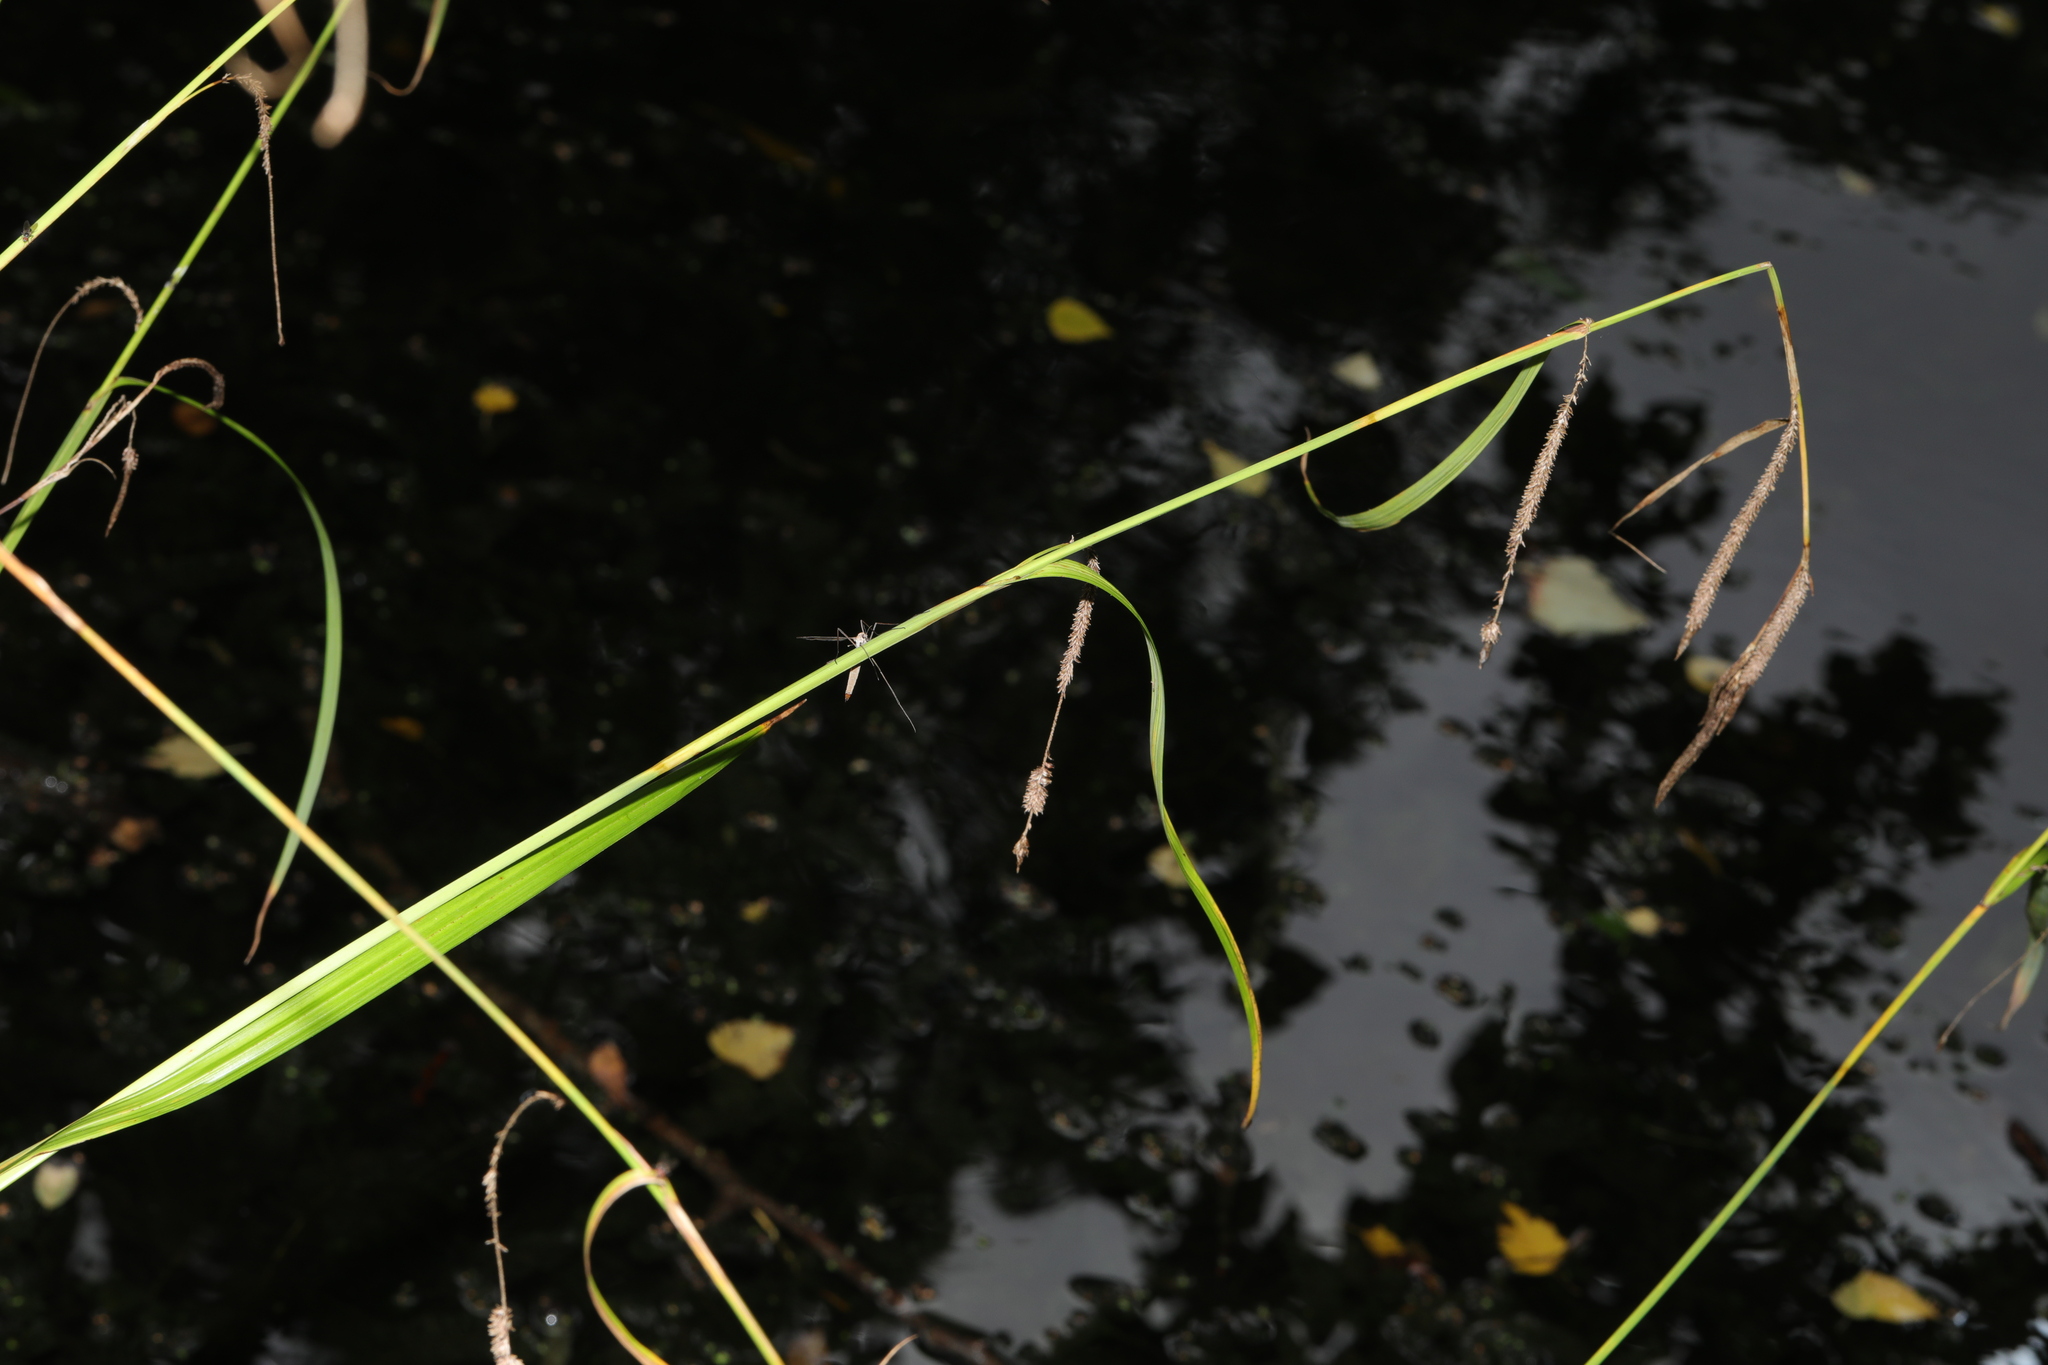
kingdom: Plantae
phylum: Tracheophyta
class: Liliopsida
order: Poales
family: Cyperaceae
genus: Carex
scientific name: Carex pendula
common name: Pendulous sedge
